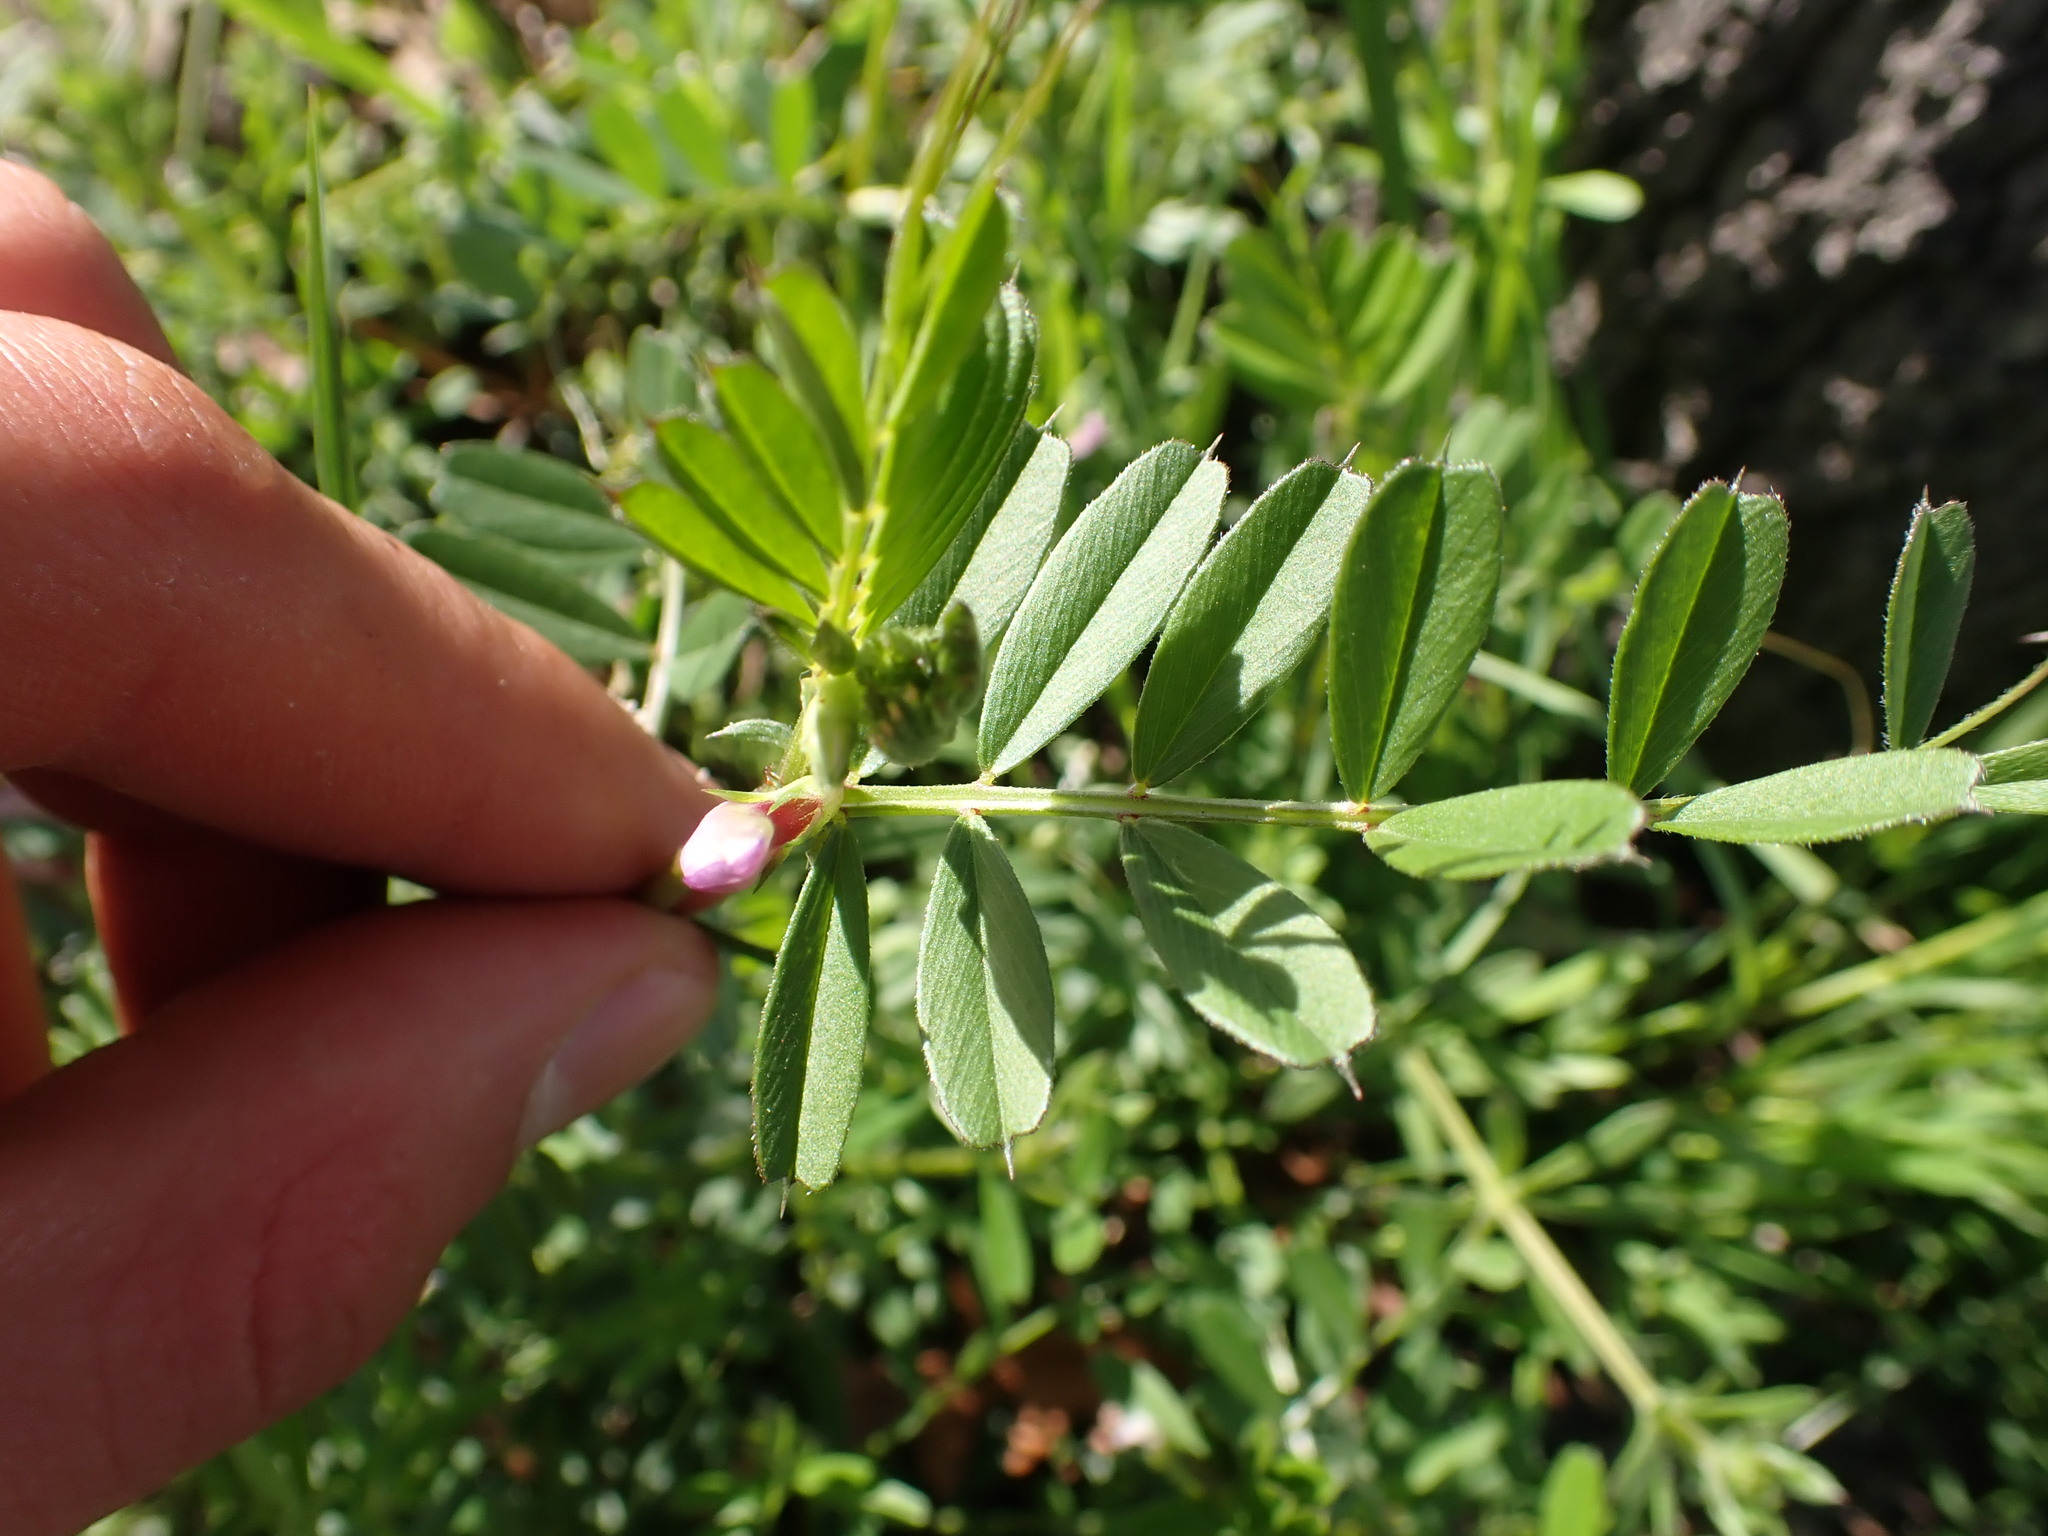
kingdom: Plantae
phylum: Tracheophyta
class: Magnoliopsida
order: Fabales
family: Fabaceae
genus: Vicia
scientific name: Vicia sativa
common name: Garden vetch
